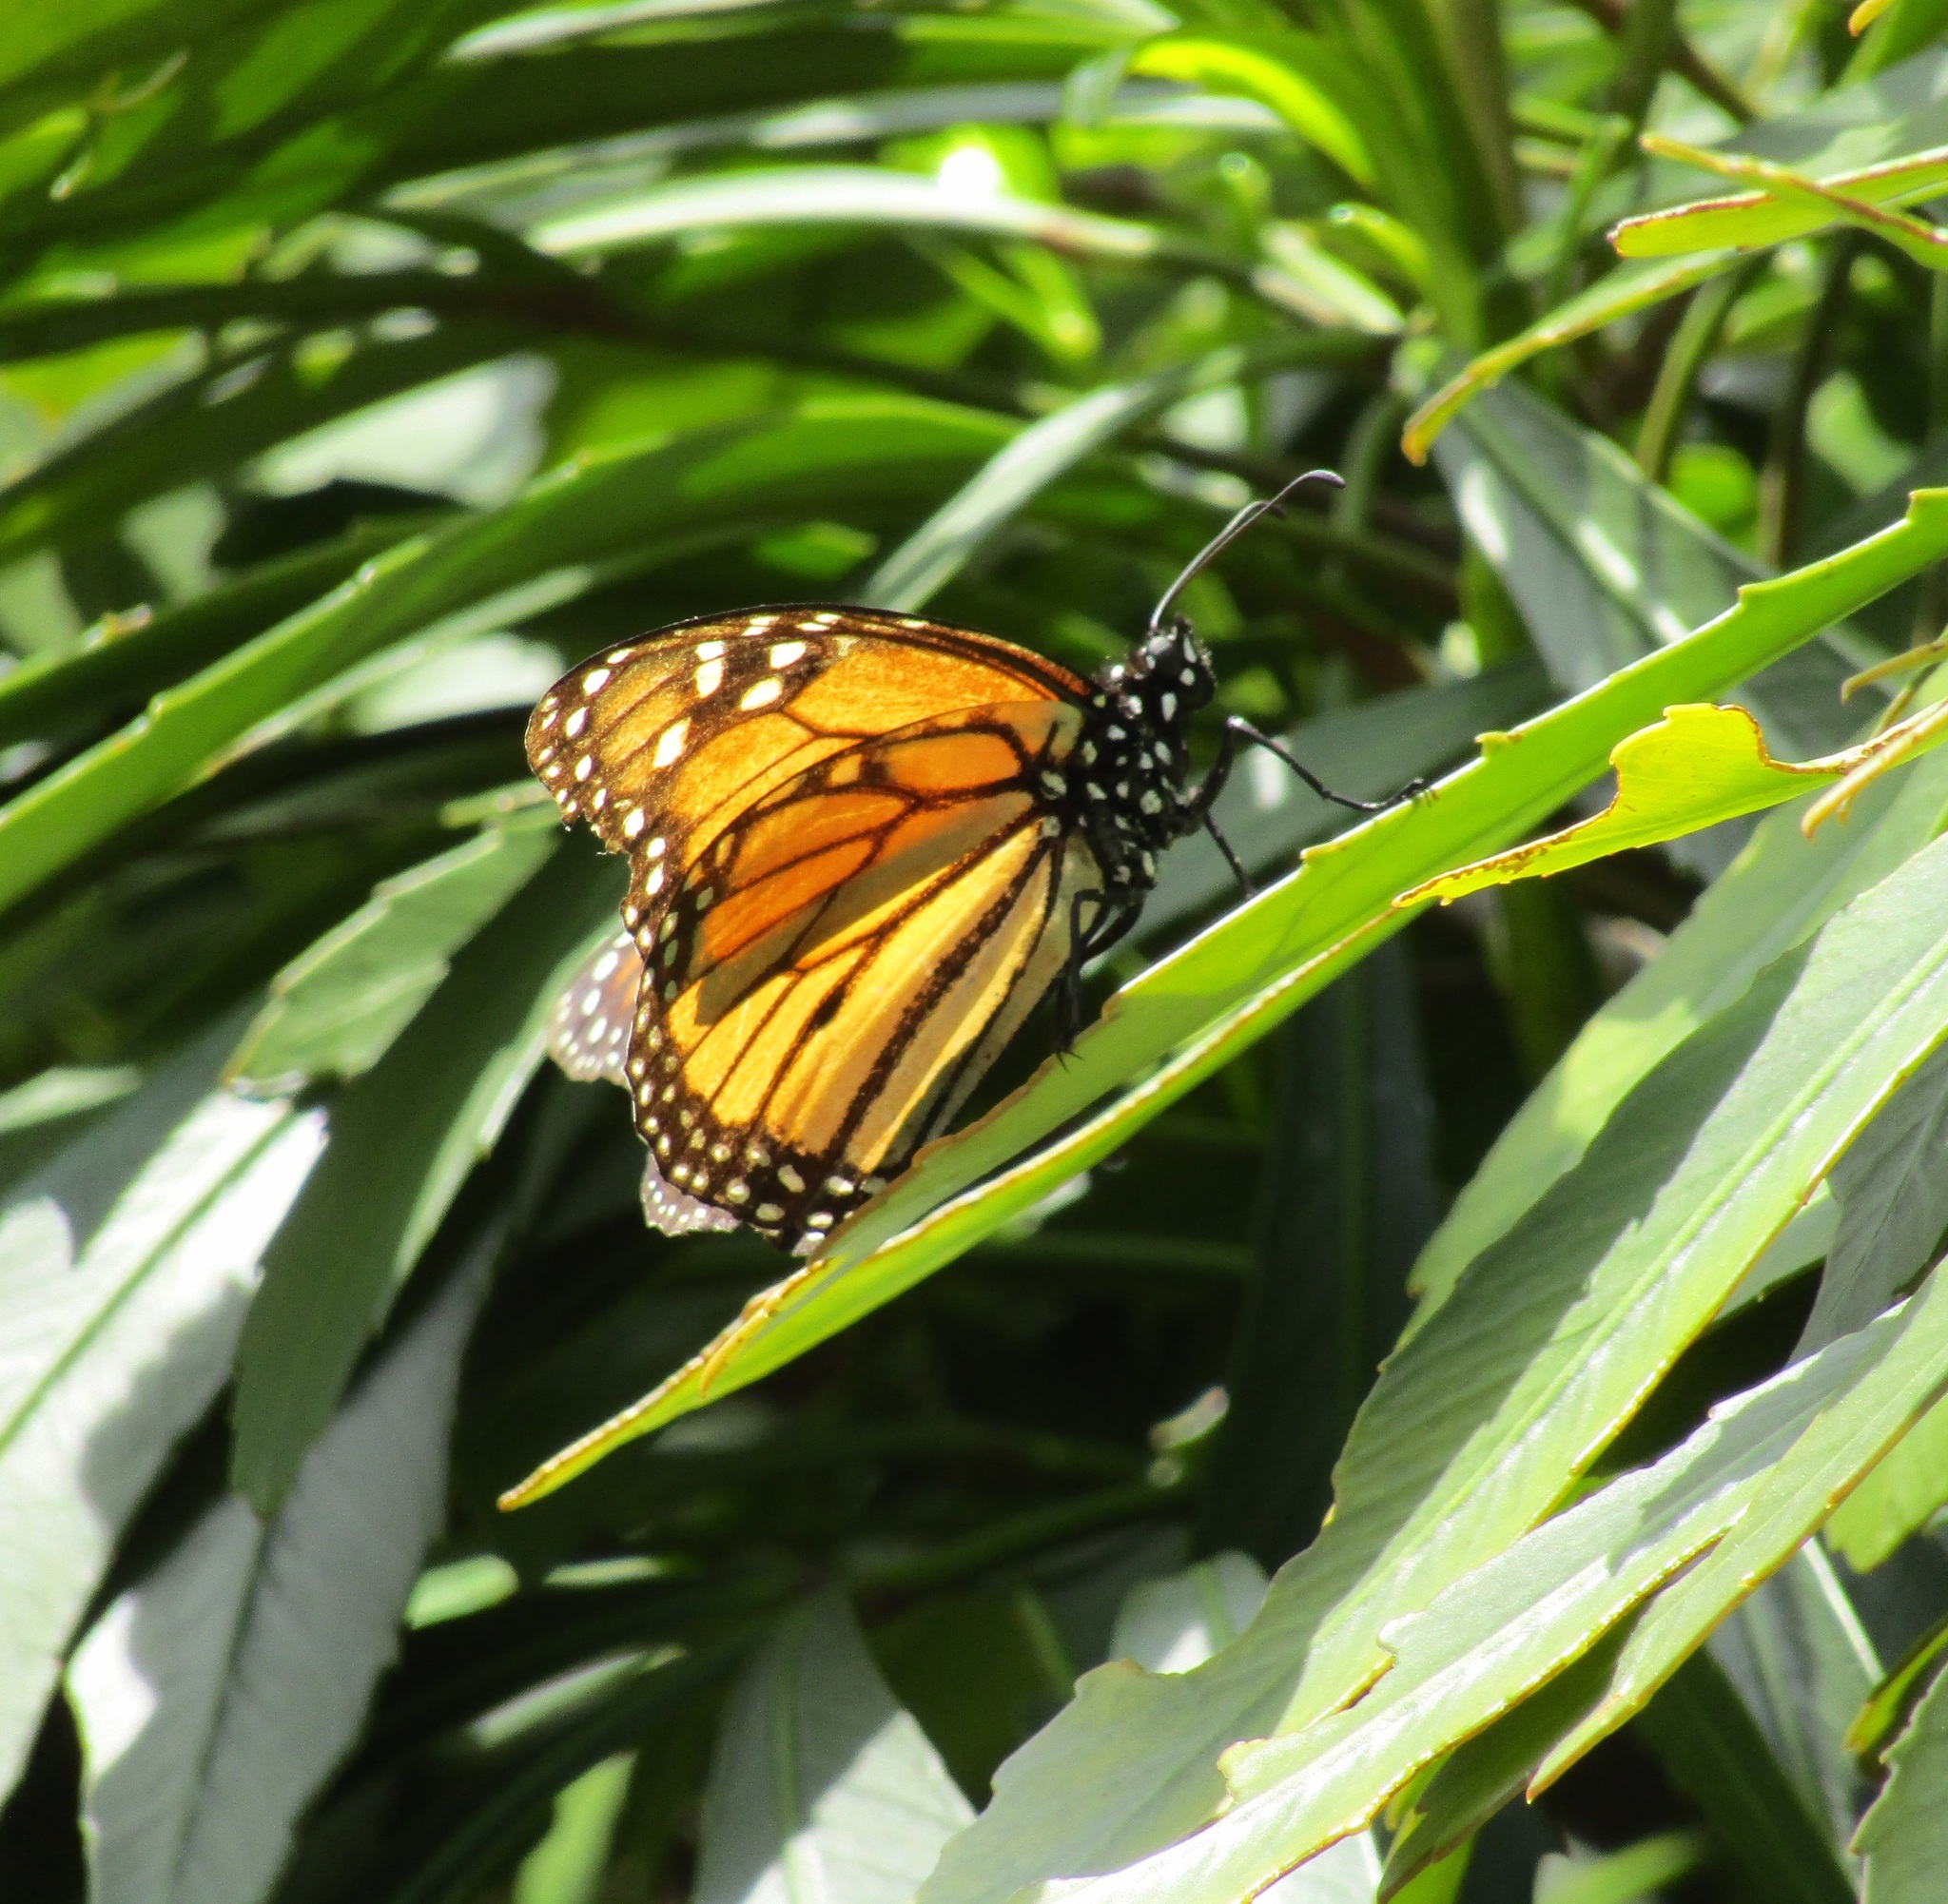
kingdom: Animalia
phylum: Arthropoda
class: Insecta
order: Lepidoptera
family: Nymphalidae
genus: Danaus
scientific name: Danaus plexippus
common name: Monarch
